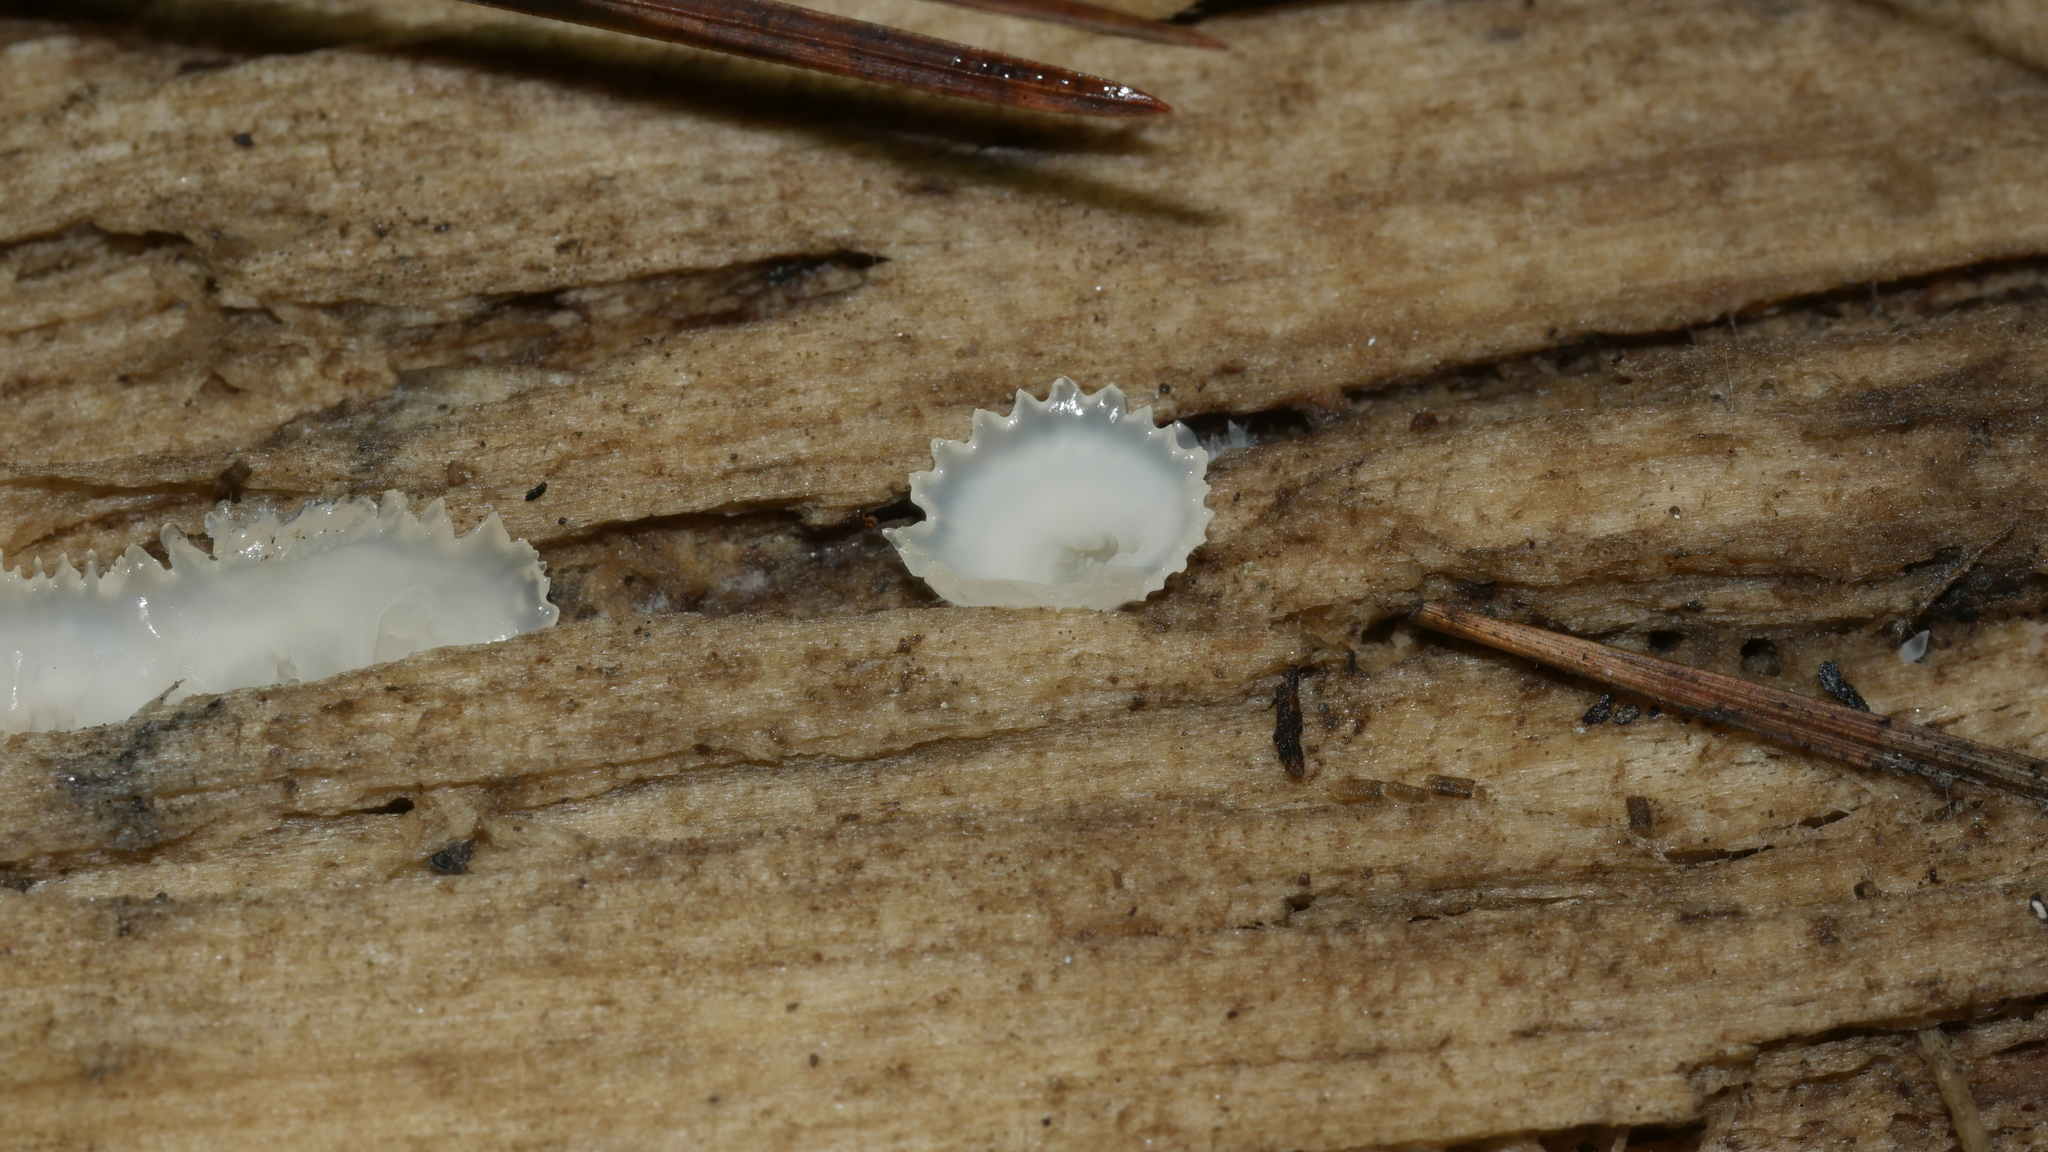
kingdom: Fungi
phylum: Basidiomycota
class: Agaricomycetes
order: Polyporales
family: Meruliaceae
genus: Phlebia
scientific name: Phlebia tremellosa
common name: Jelly rot
